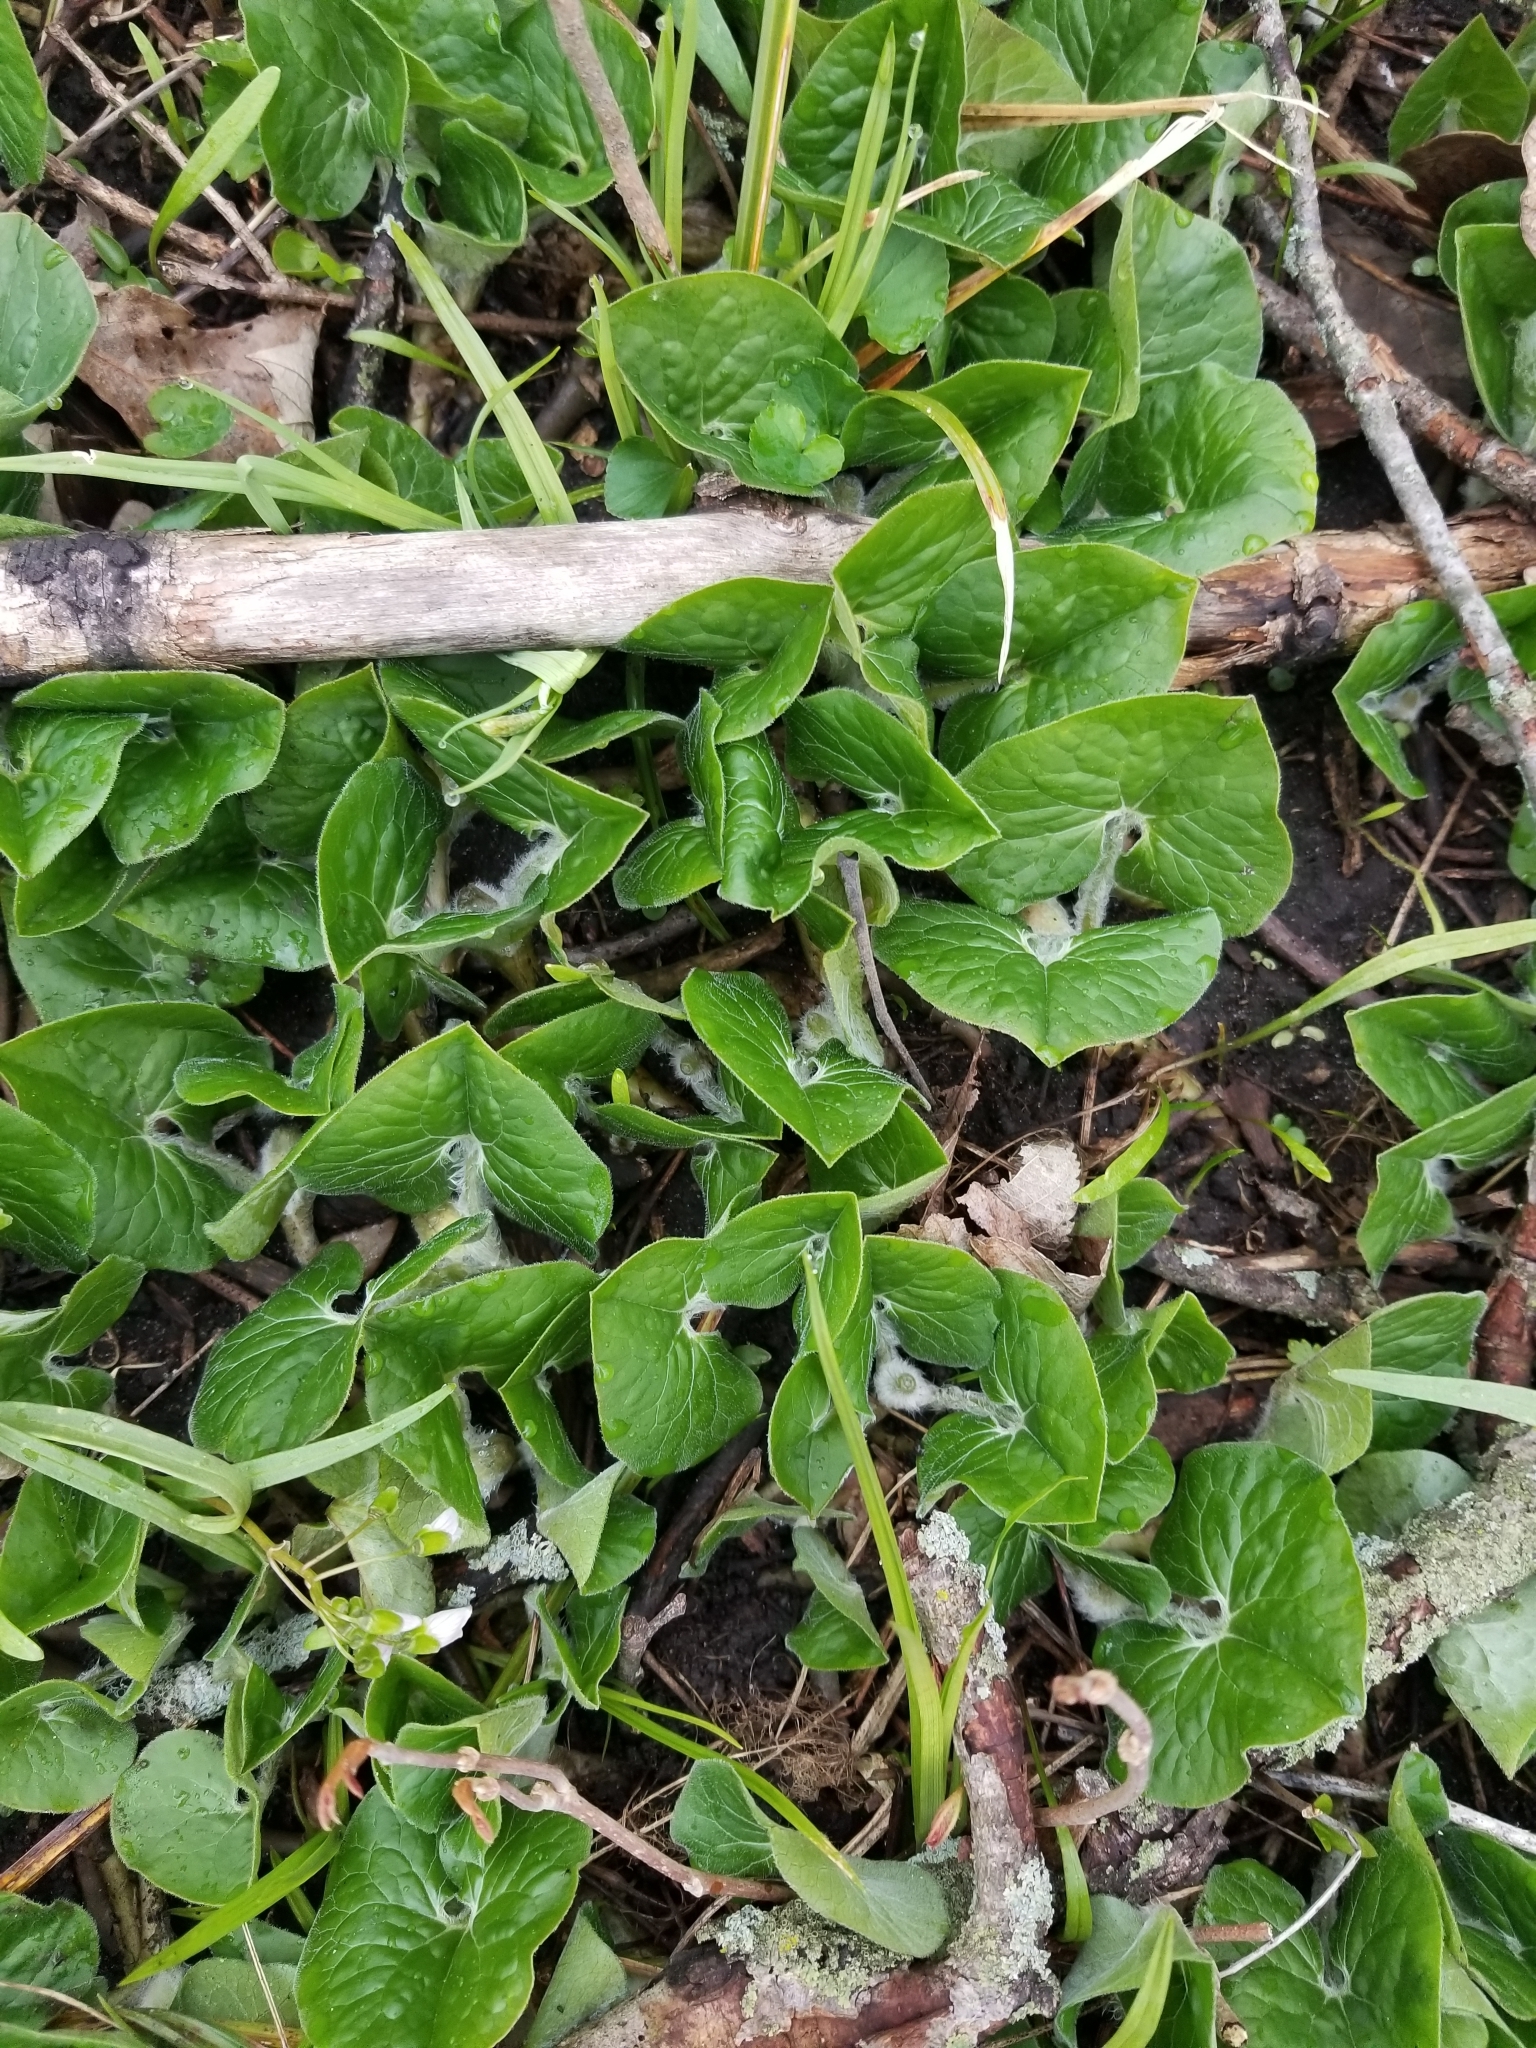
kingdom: Plantae
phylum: Tracheophyta
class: Magnoliopsida
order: Piperales
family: Aristolochiaceae
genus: Asarum
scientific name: Asarum canadense
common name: Wild ginger
